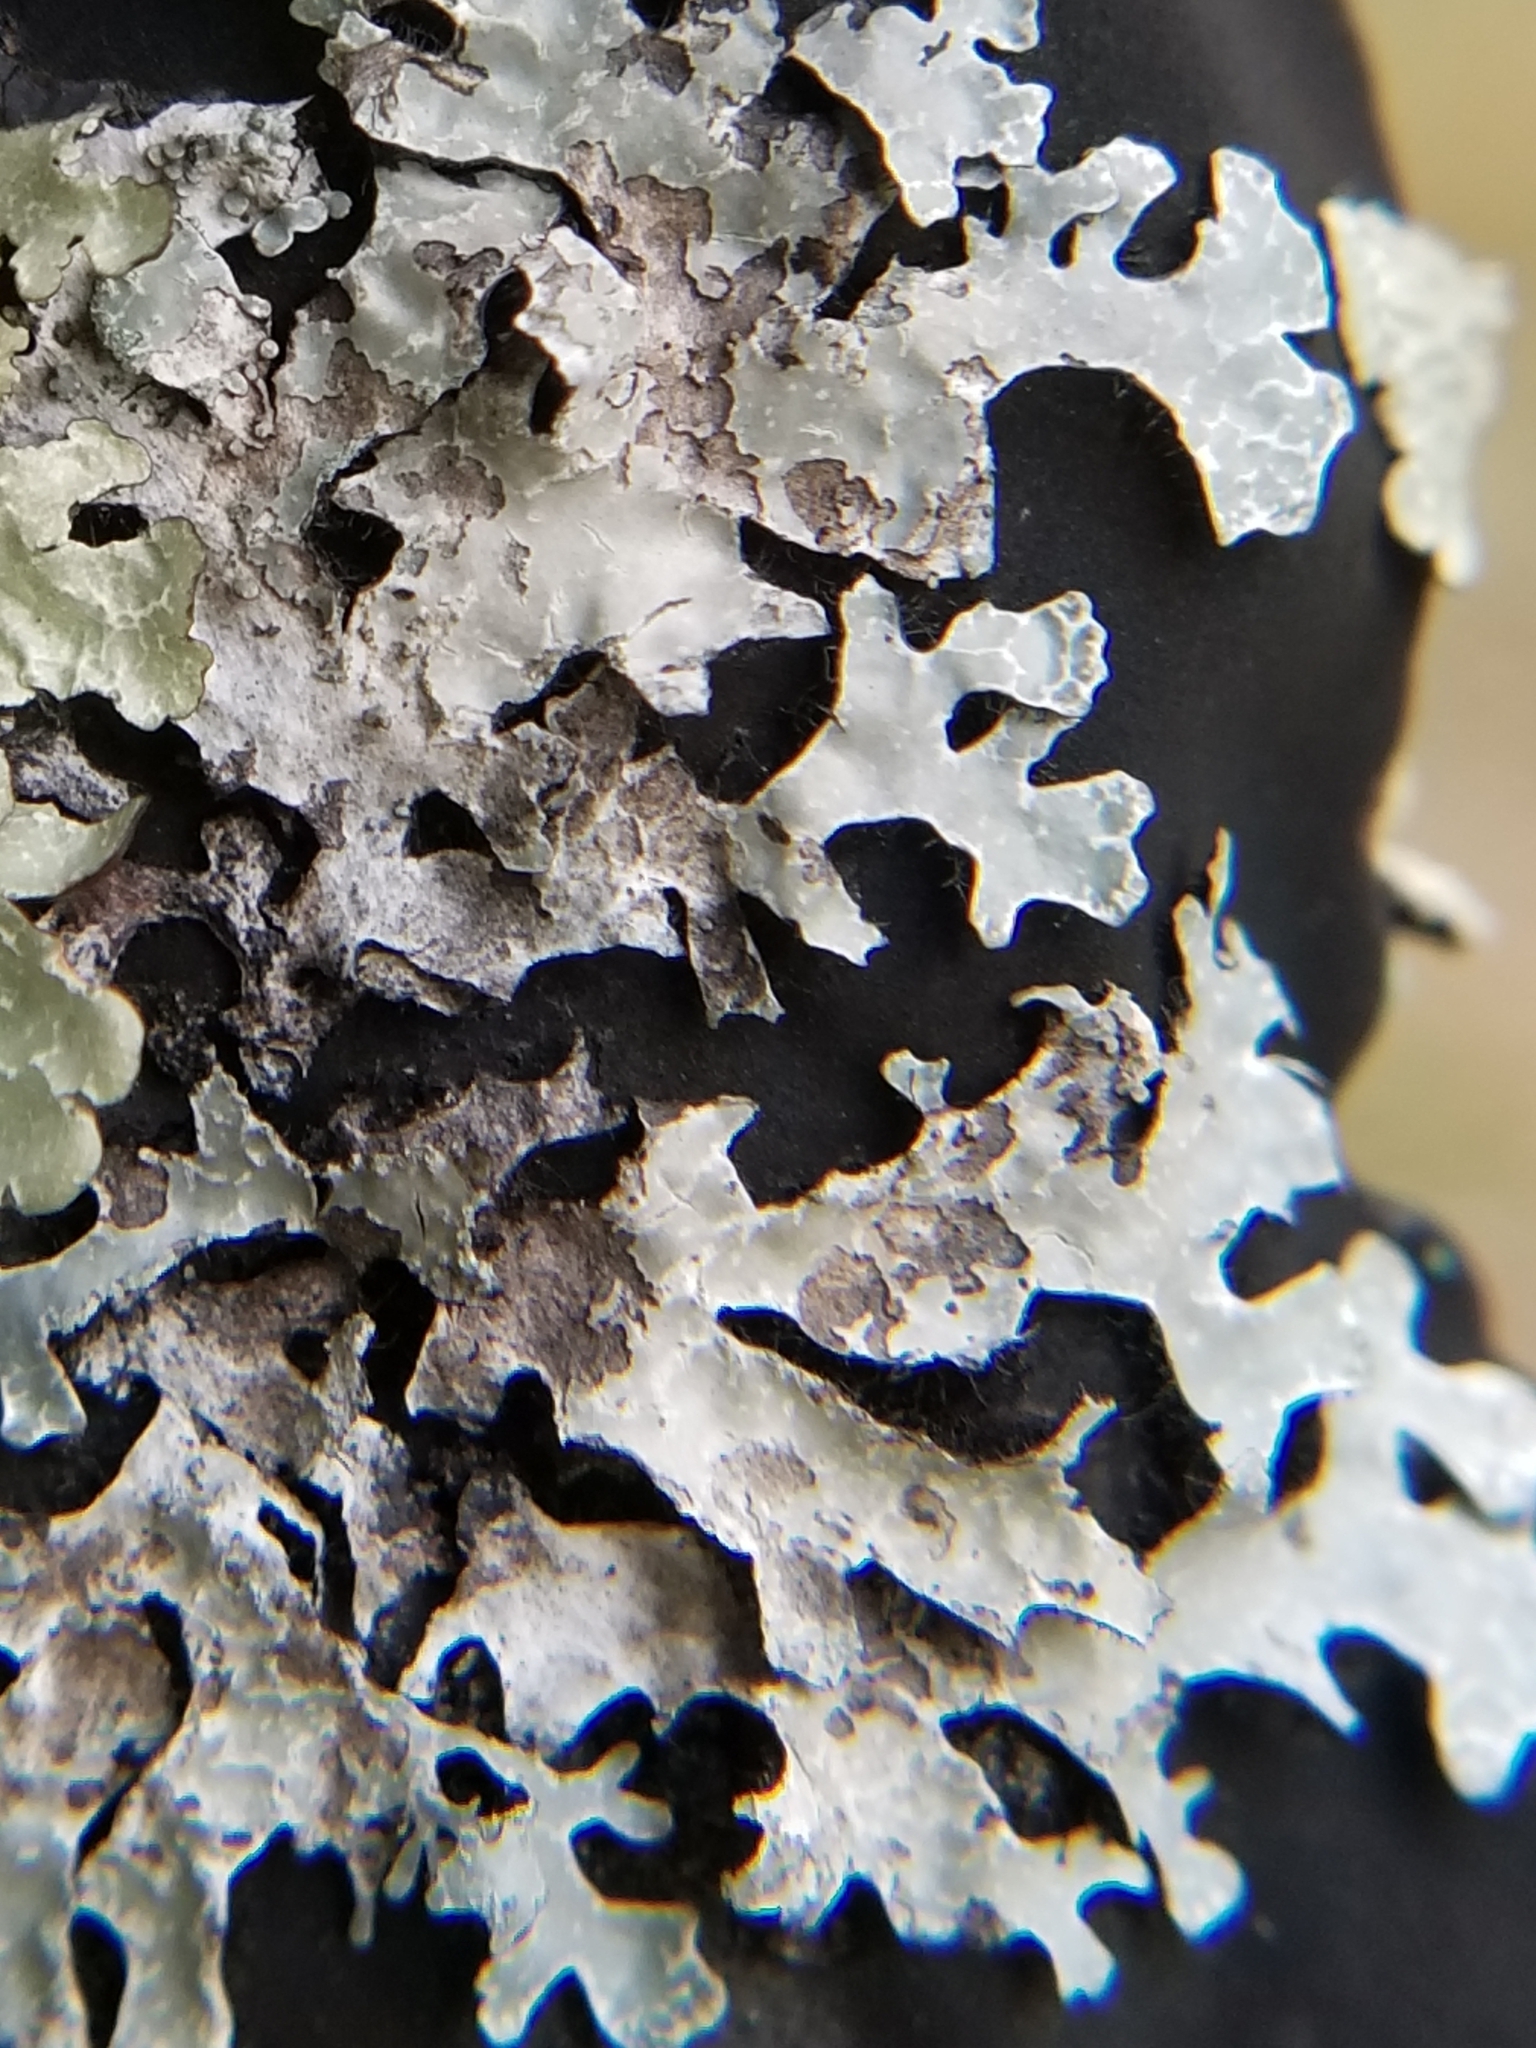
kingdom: Fungi
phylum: Ascomycota
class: Lecanoromycetes
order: Lecanorales
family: Parmeliaceae
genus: Parmelia
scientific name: Parmelia sulcata
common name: Netted shield lichen
